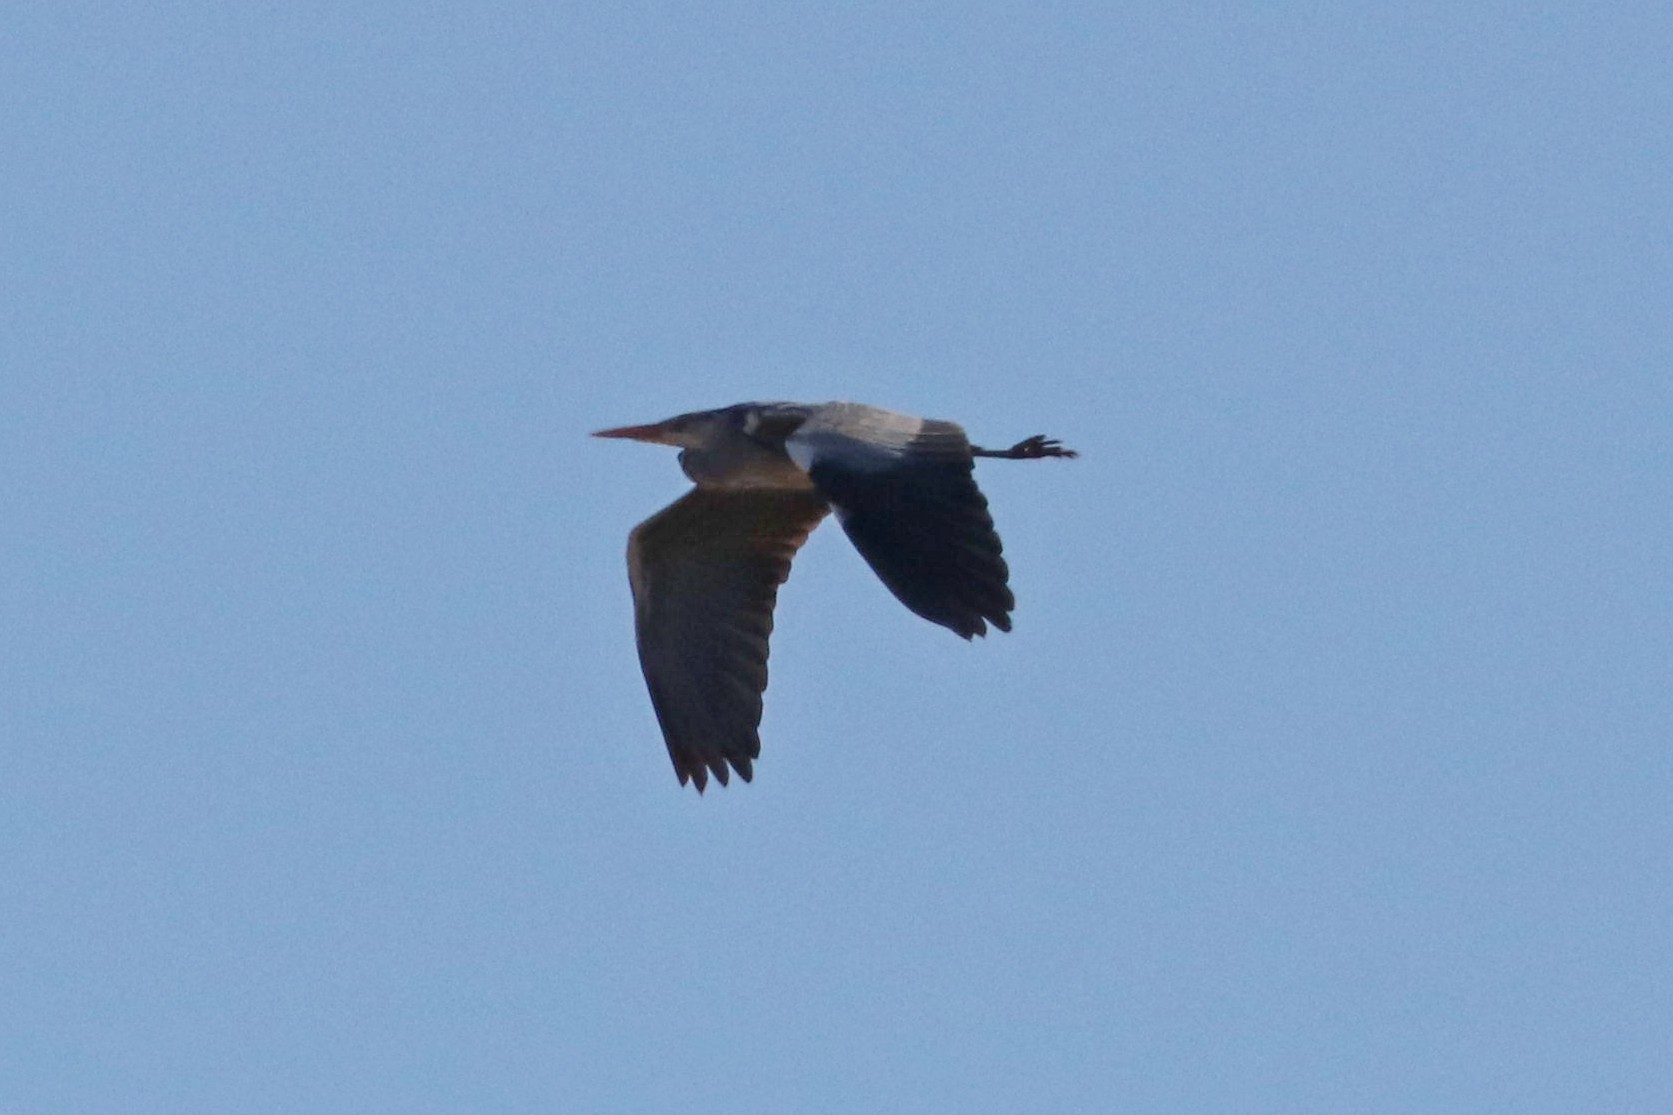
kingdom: Animalia
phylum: Chordata
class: Aves
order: Pelecaniformes
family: Ardeidae
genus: Ardea
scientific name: Ardea cinerea
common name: Grey heron
